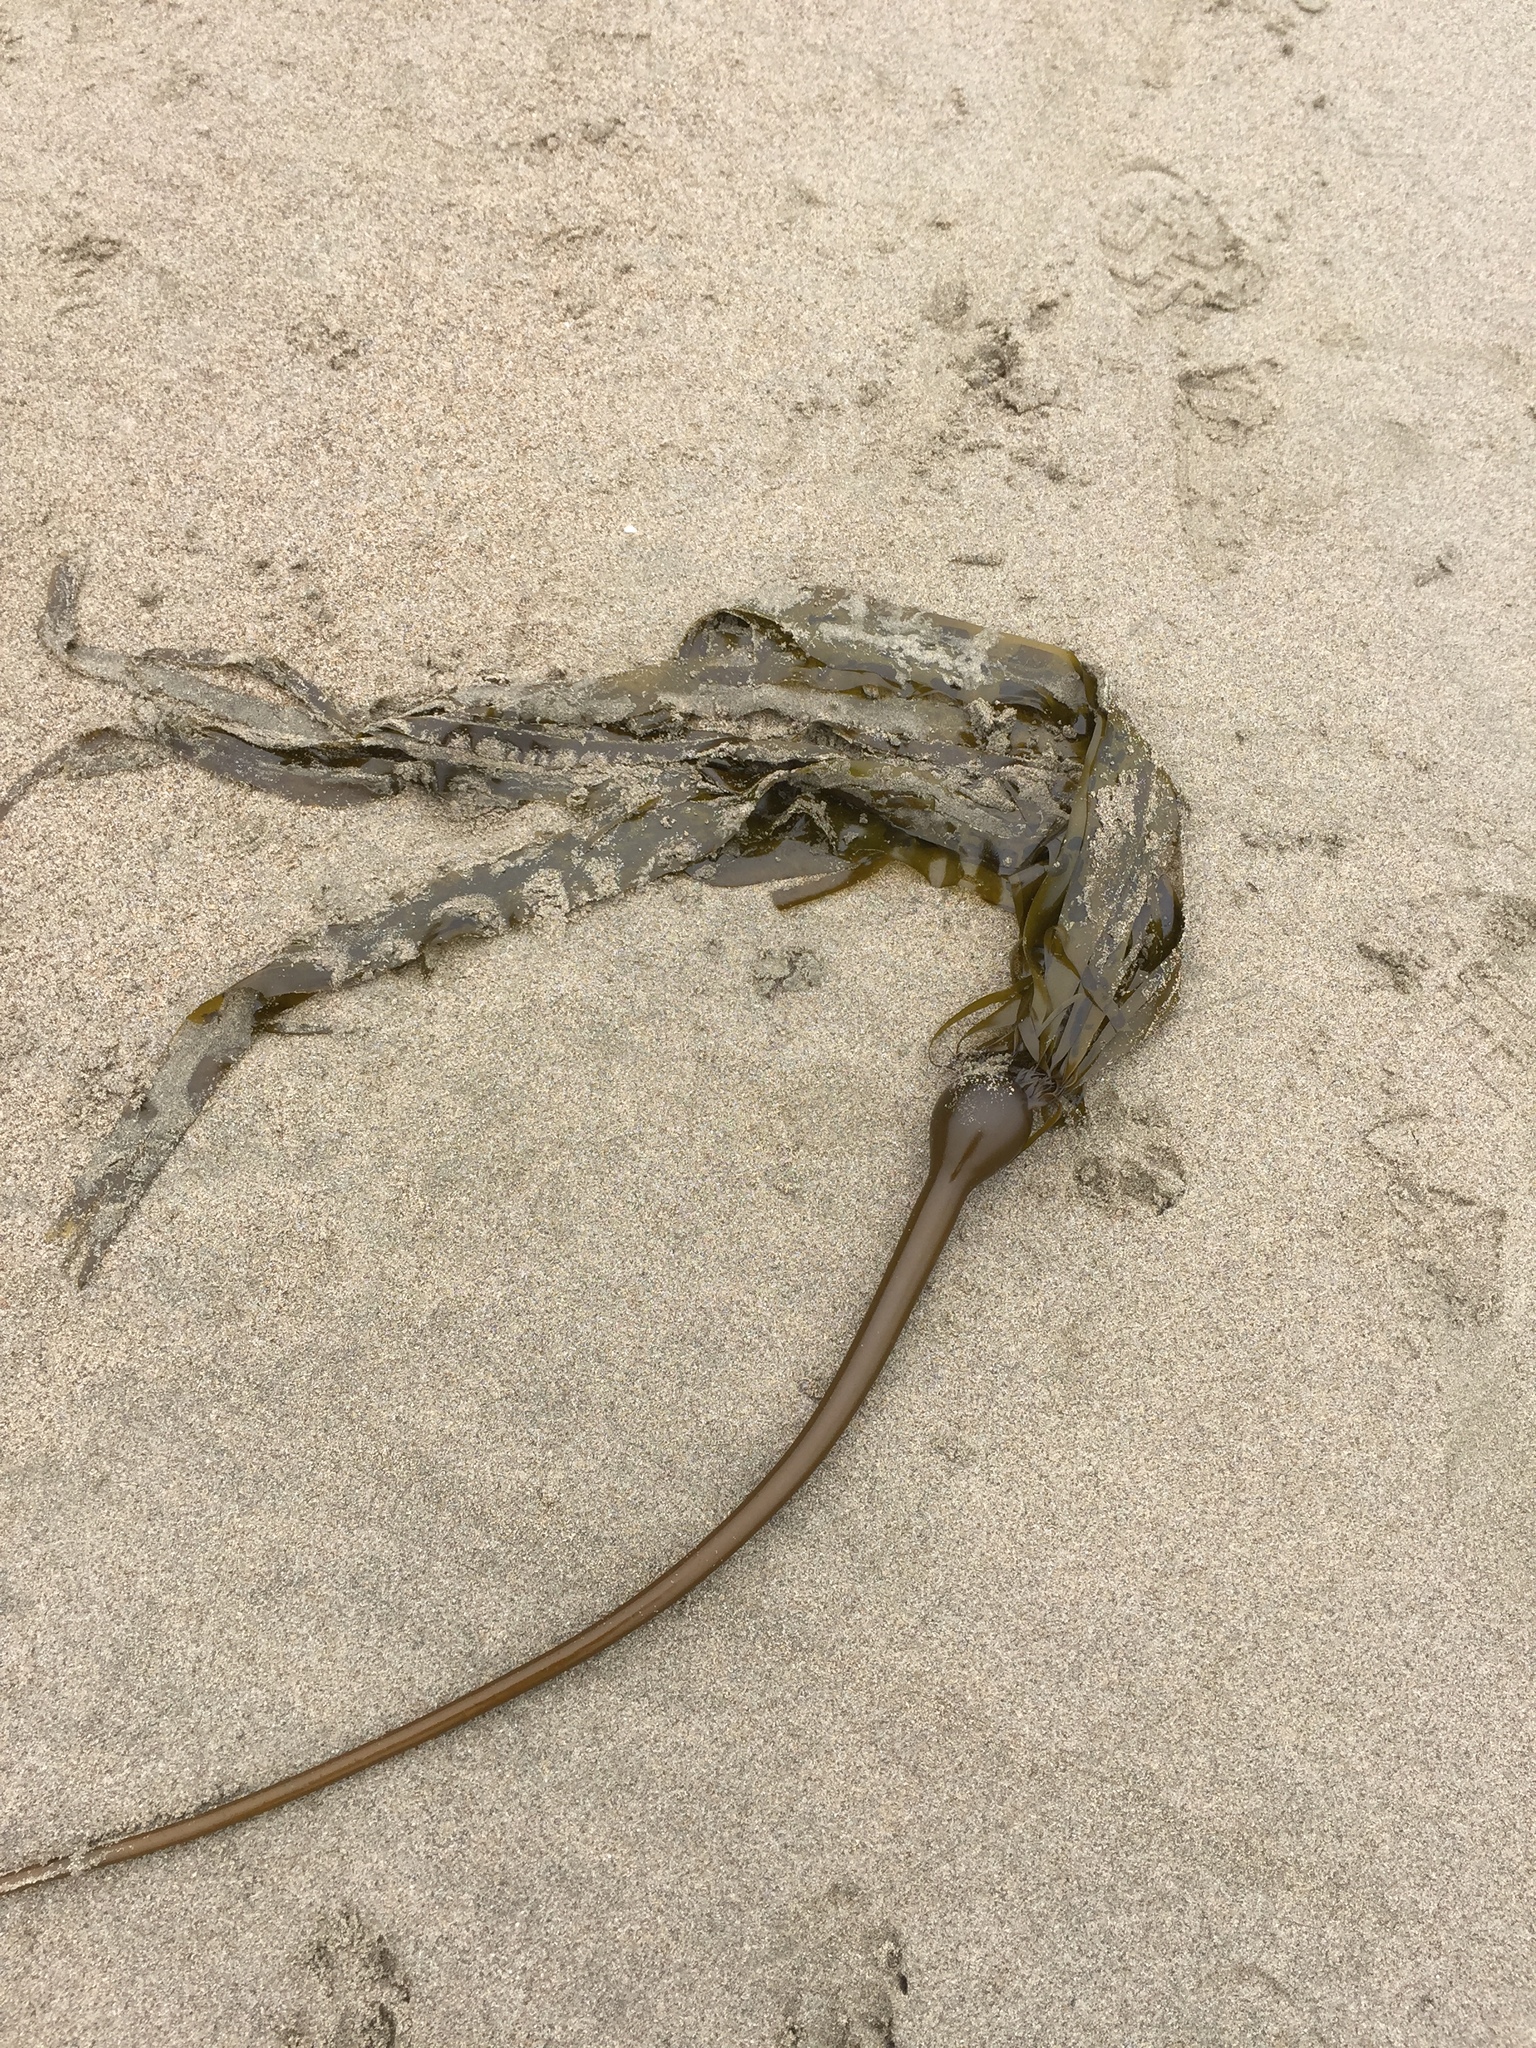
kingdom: Chromista
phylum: Ochrophyta
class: Phaeophyceae
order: Laminariales
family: Laminariaceae
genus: Nereocystis
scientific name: Nereocystis luetkeana
